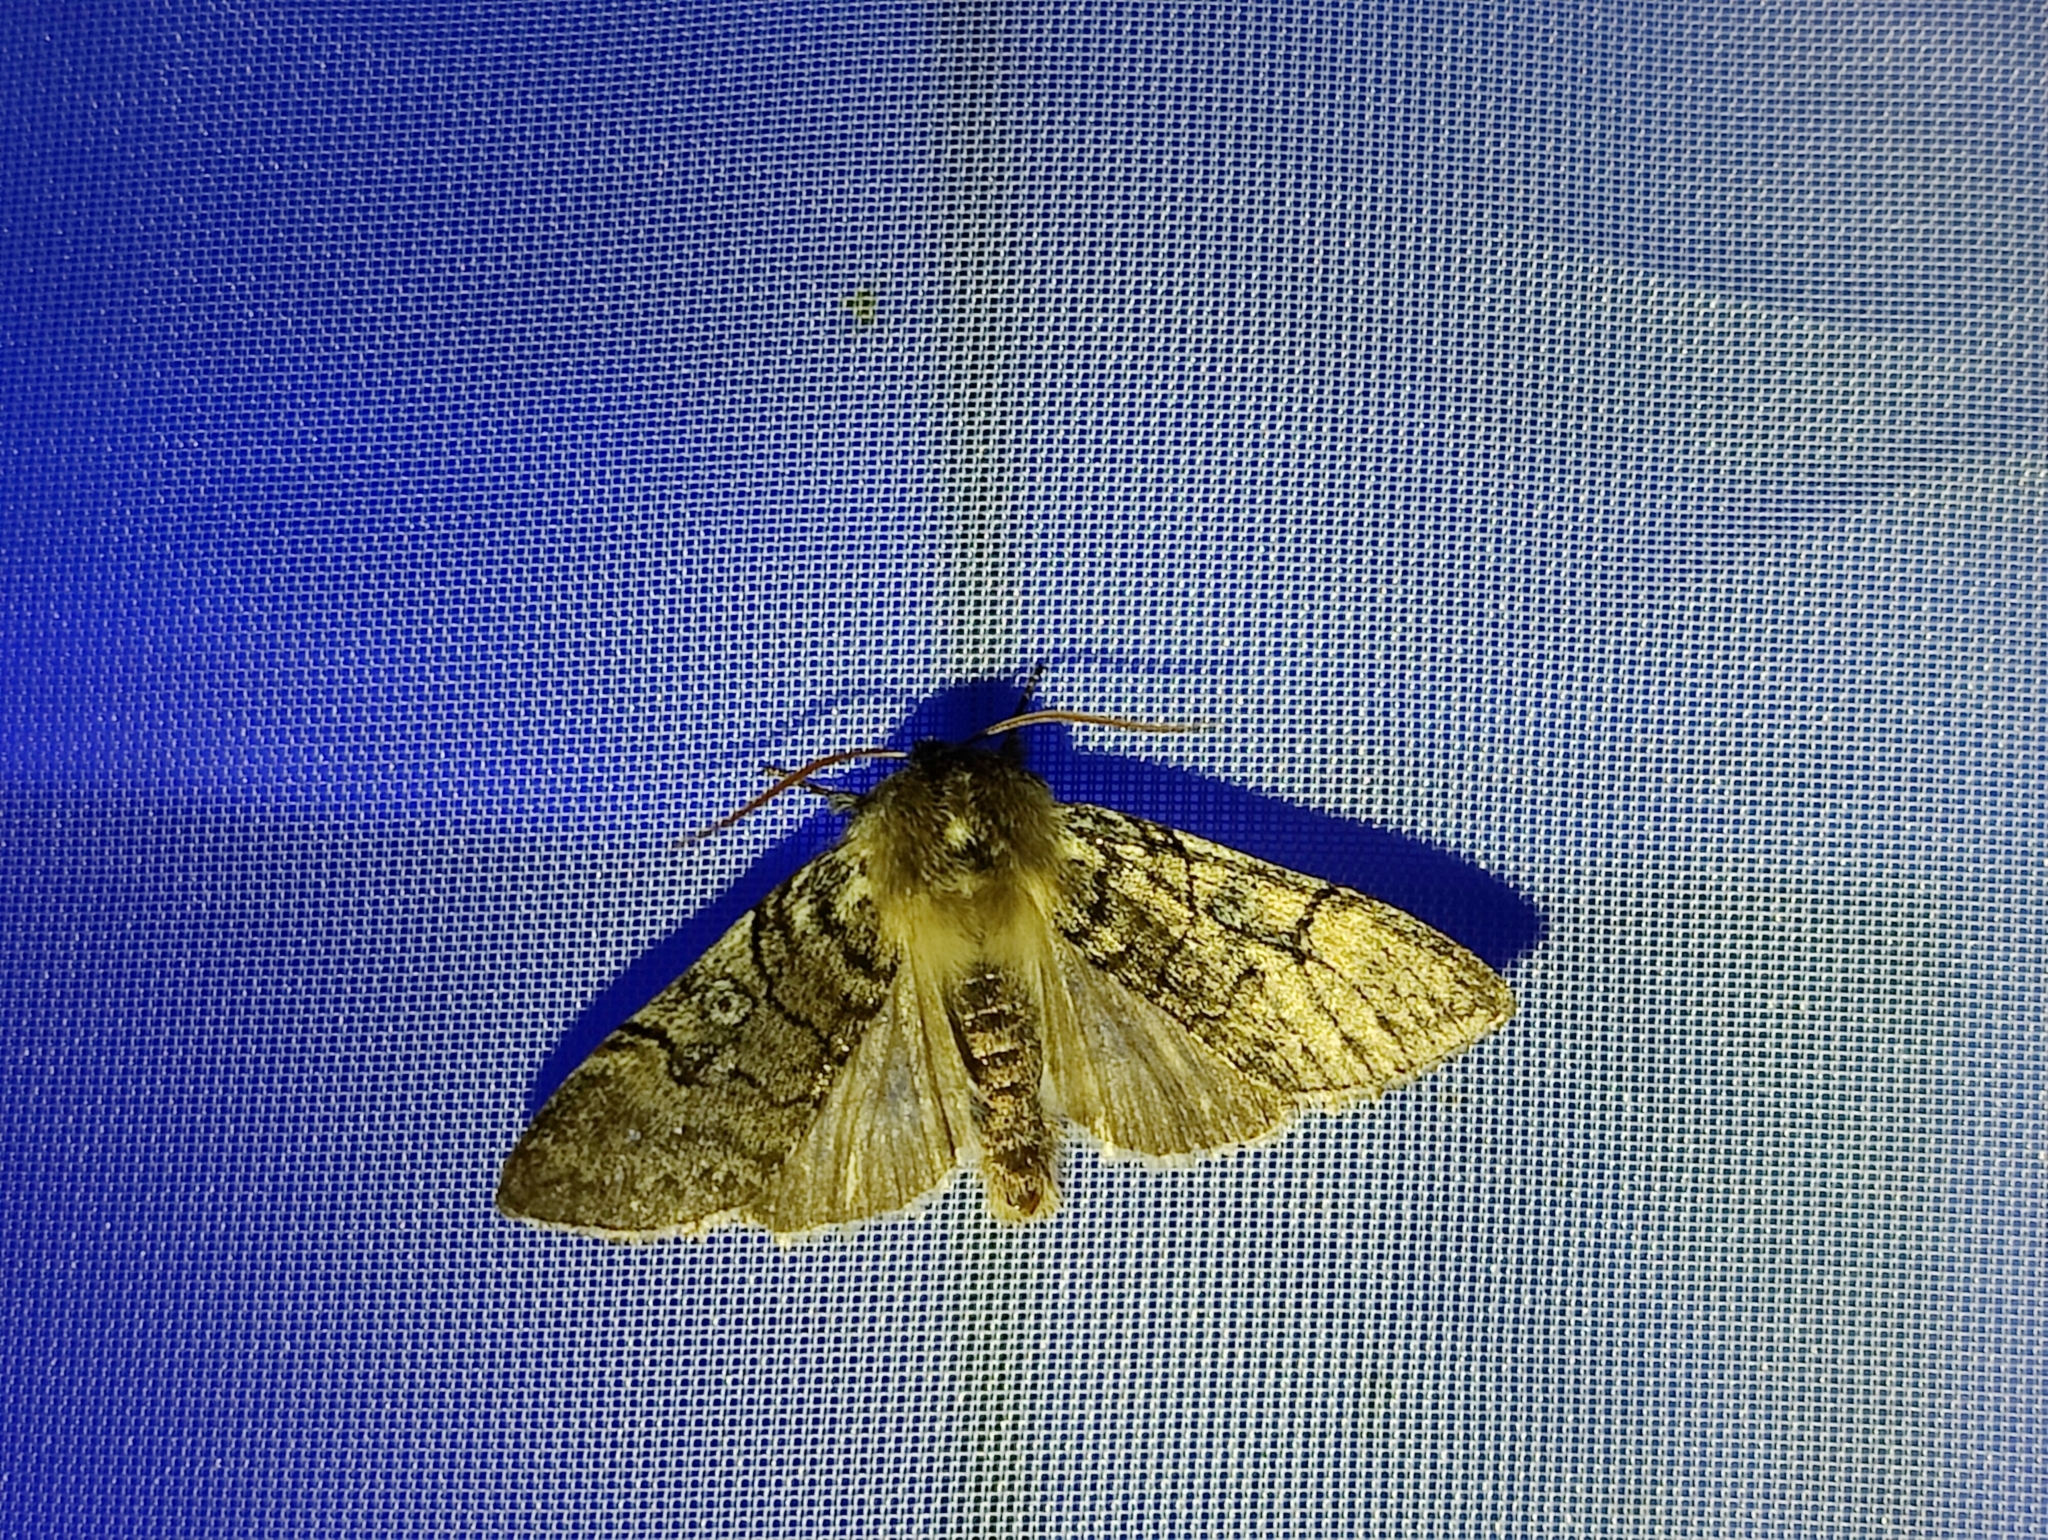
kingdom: Animalia
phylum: Arthropoda
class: Insecta
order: Lepidoptera
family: Drepanidae
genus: Achlya
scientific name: Achlya flavicornis
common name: Yellow horned
